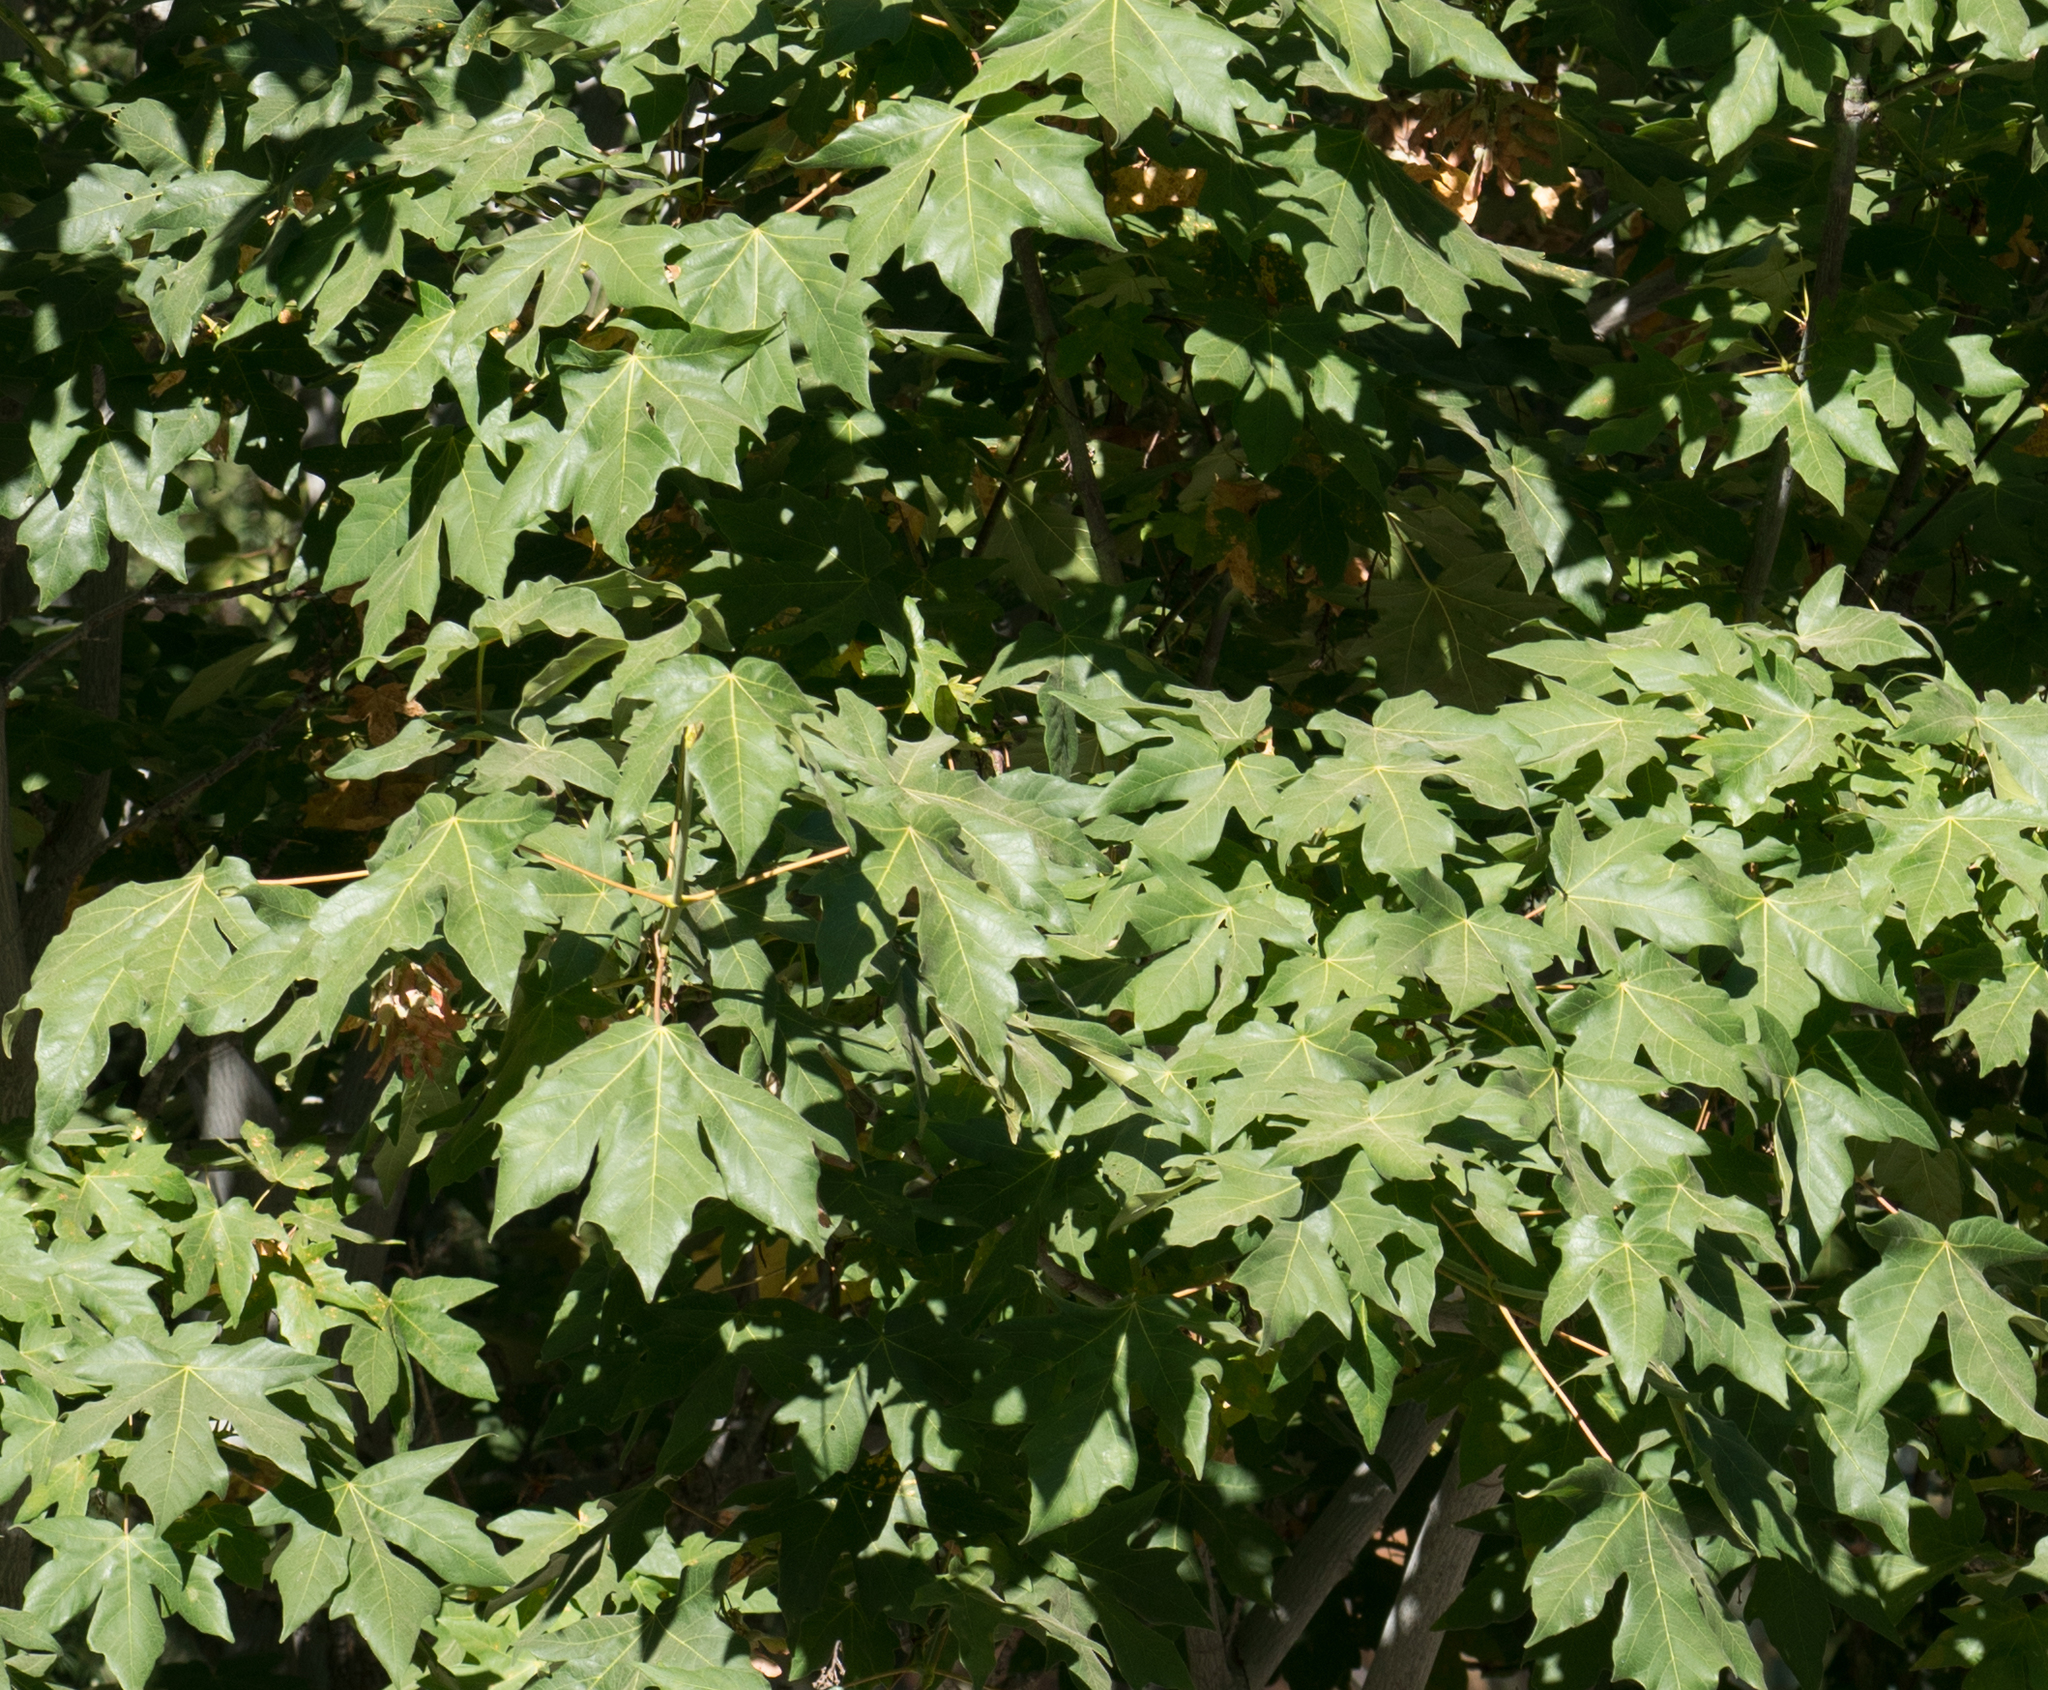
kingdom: Plantae
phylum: Tracheophyta
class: Magnoliopsida
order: Sapindales
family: Sapindaceae
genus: Acer
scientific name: Acer macrophyllum
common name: Oregon maple
